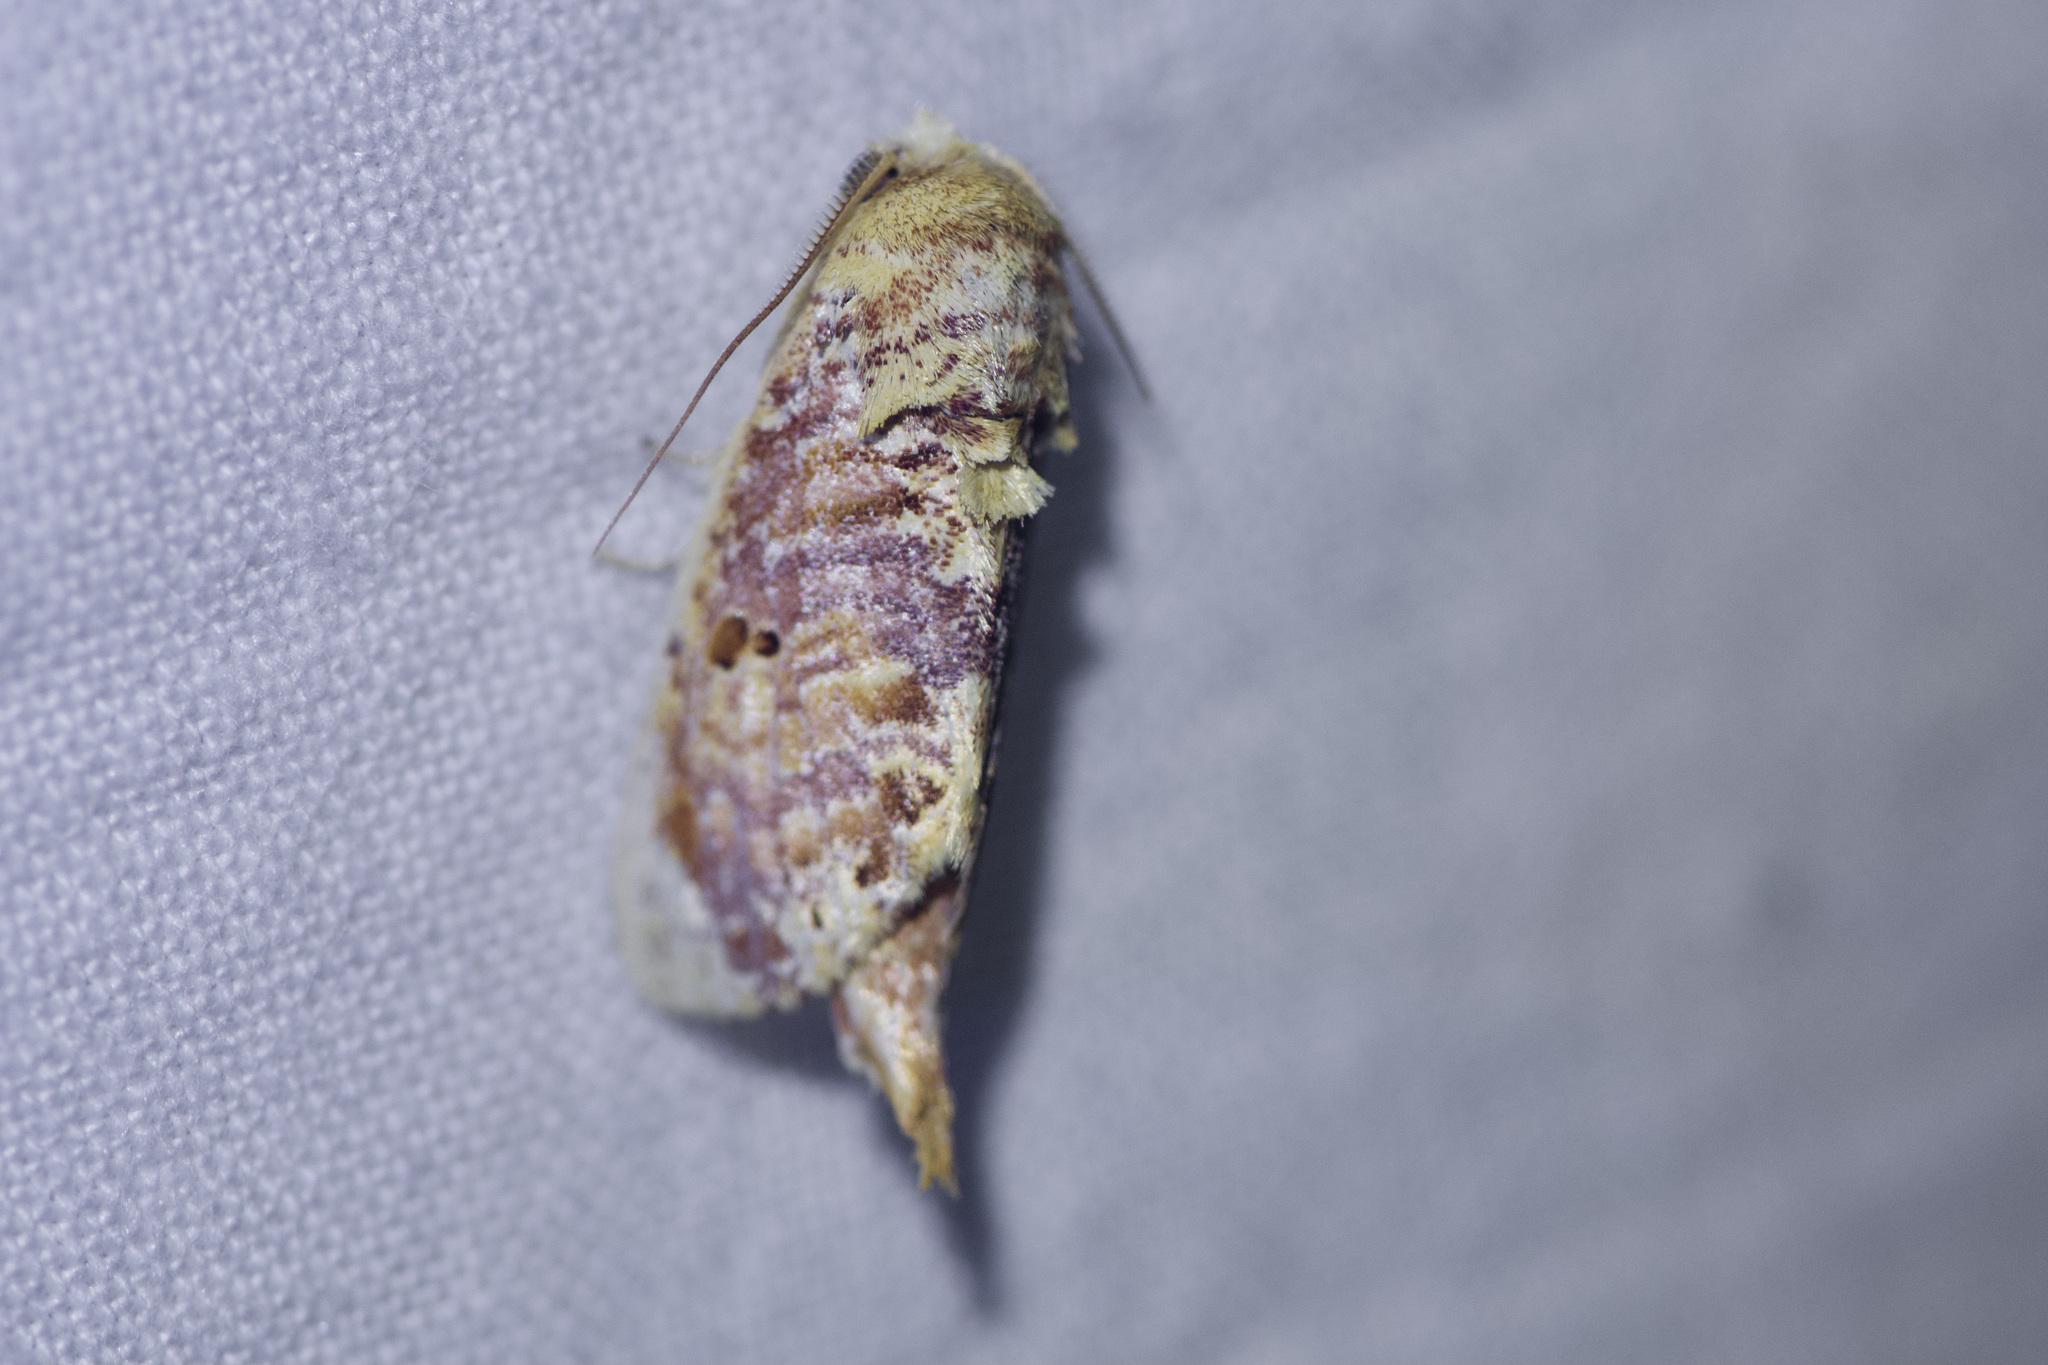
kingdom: Animalia
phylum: Arthropoda
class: Insecta
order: Lepidoptera
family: Notodontidae
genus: Magava
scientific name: Magava multilinea
